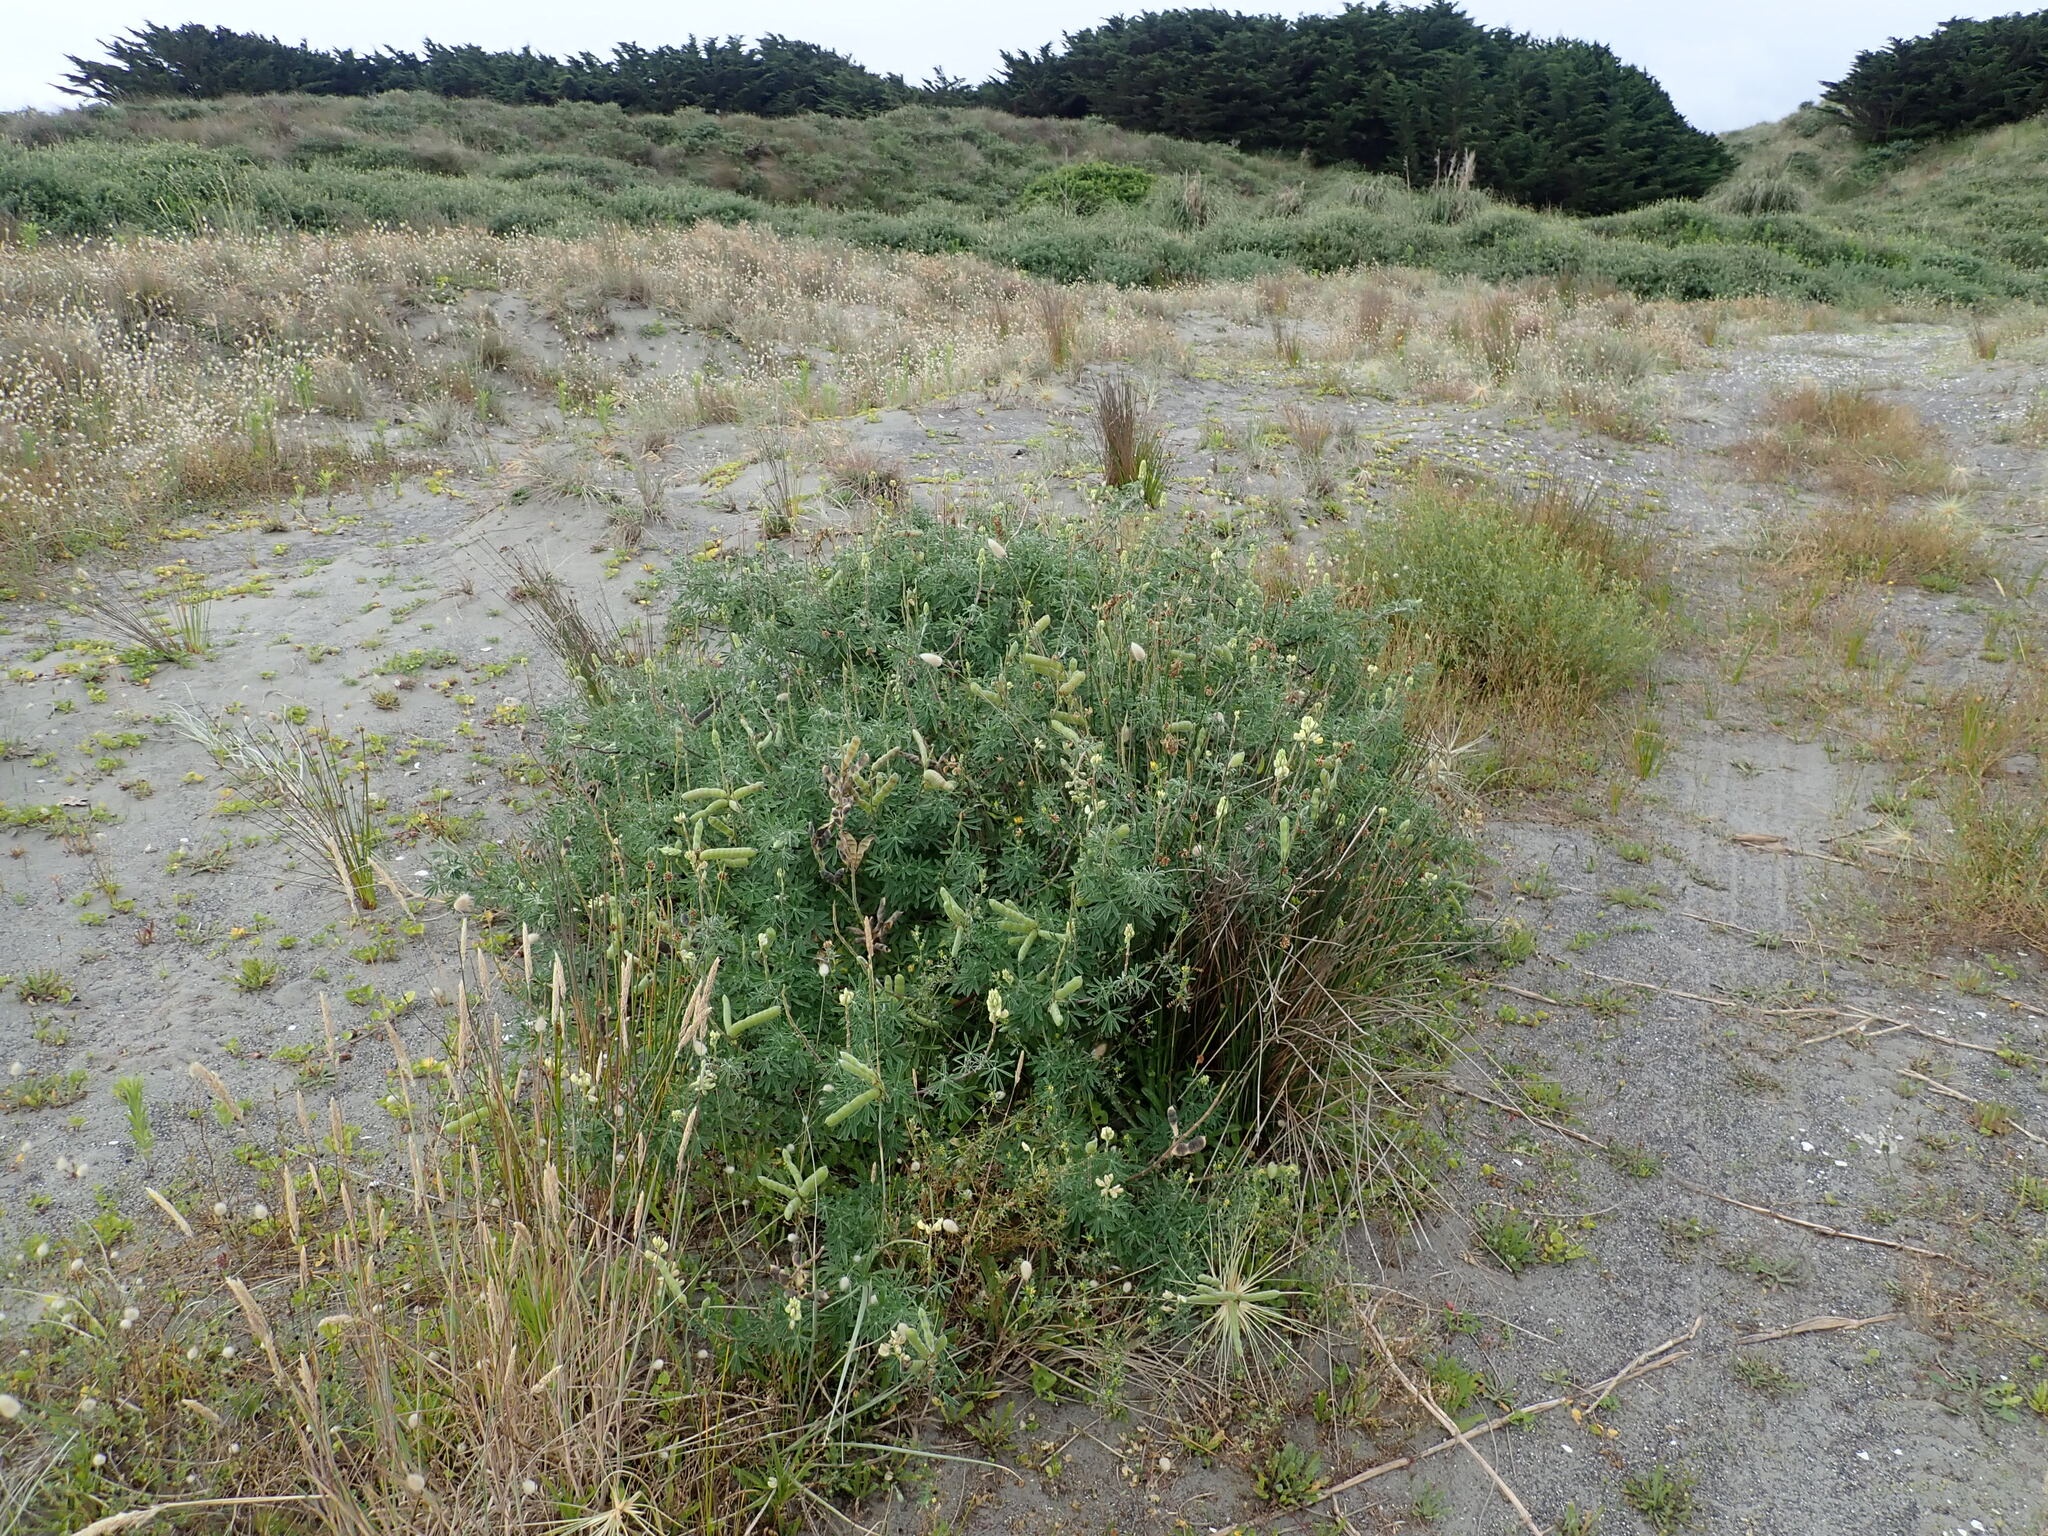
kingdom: Plantae
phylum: Tracheophyta
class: Magnoliopsida
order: Fabales
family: Fabaceae
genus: Lupinus
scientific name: Lupinus arboreus
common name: Yellow bush lupine
